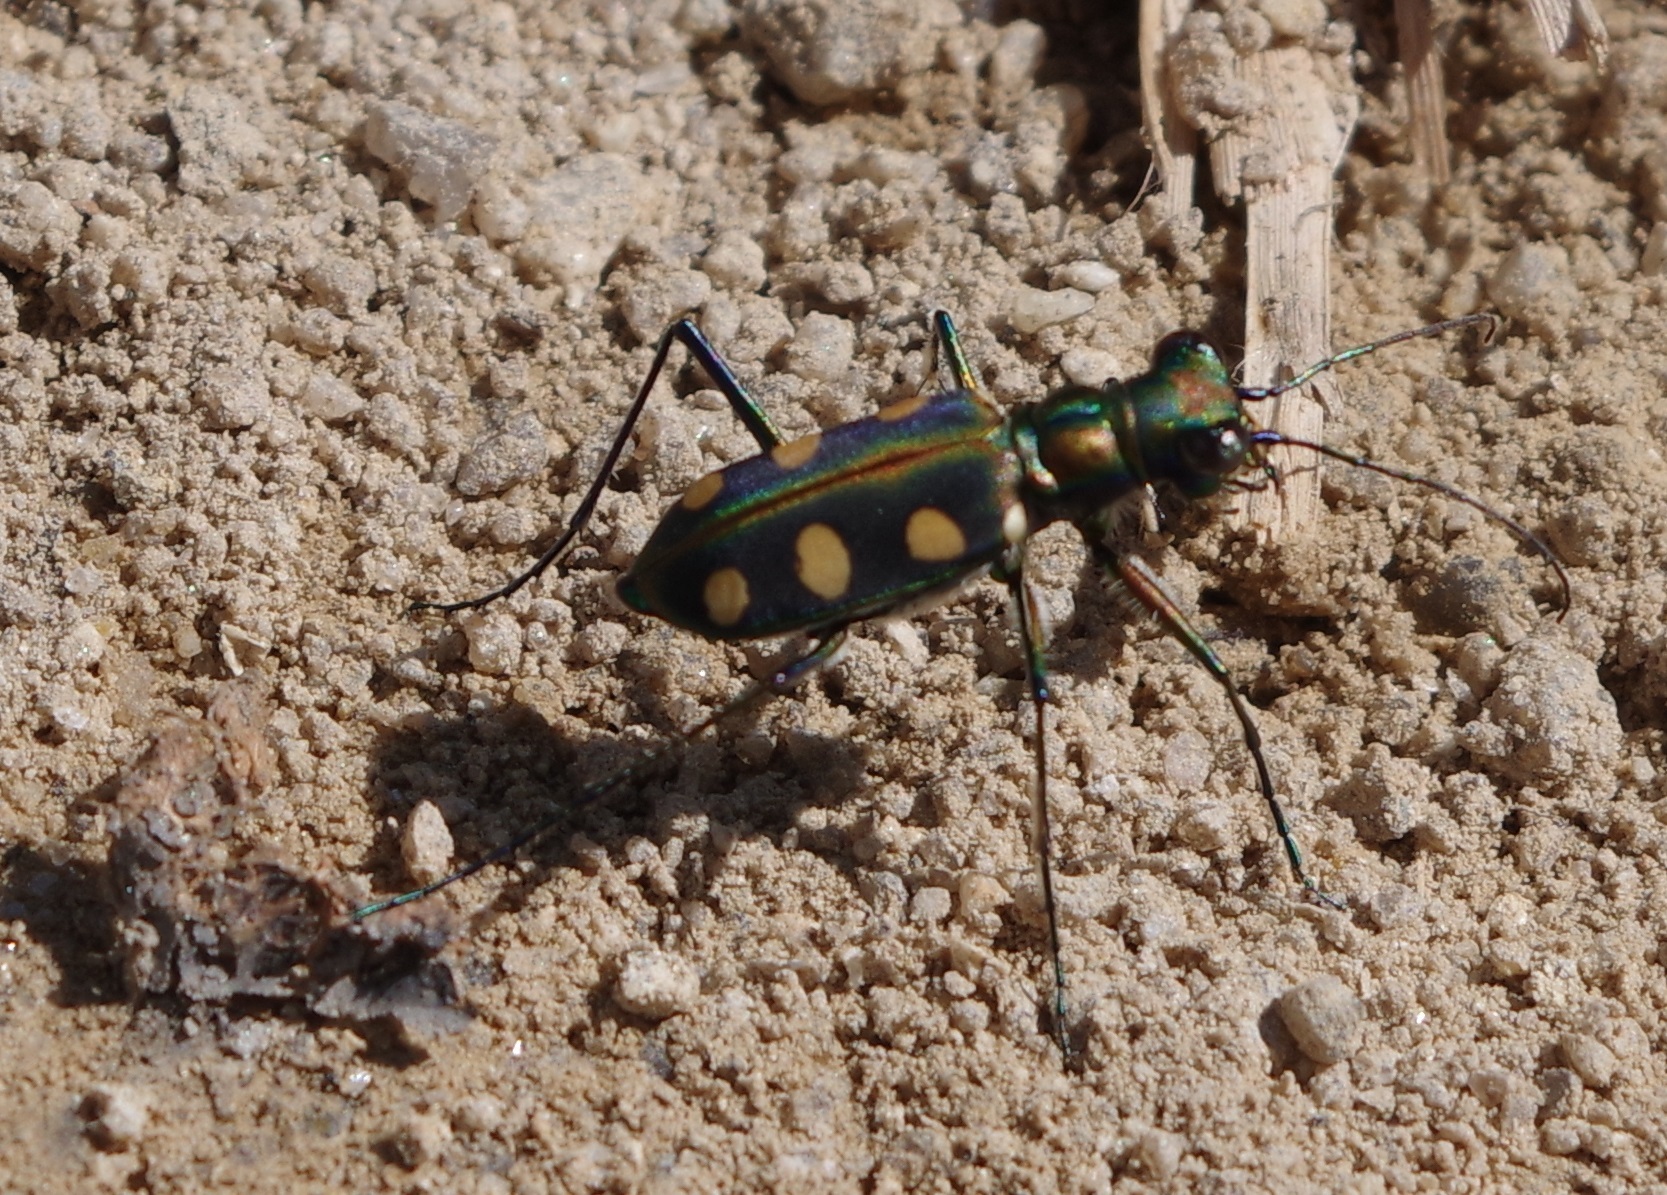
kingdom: Animalia
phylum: Arthropoda
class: Insecta
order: Coleoptera
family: Carabidae
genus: Cicindela
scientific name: Cicindela aurulenta
